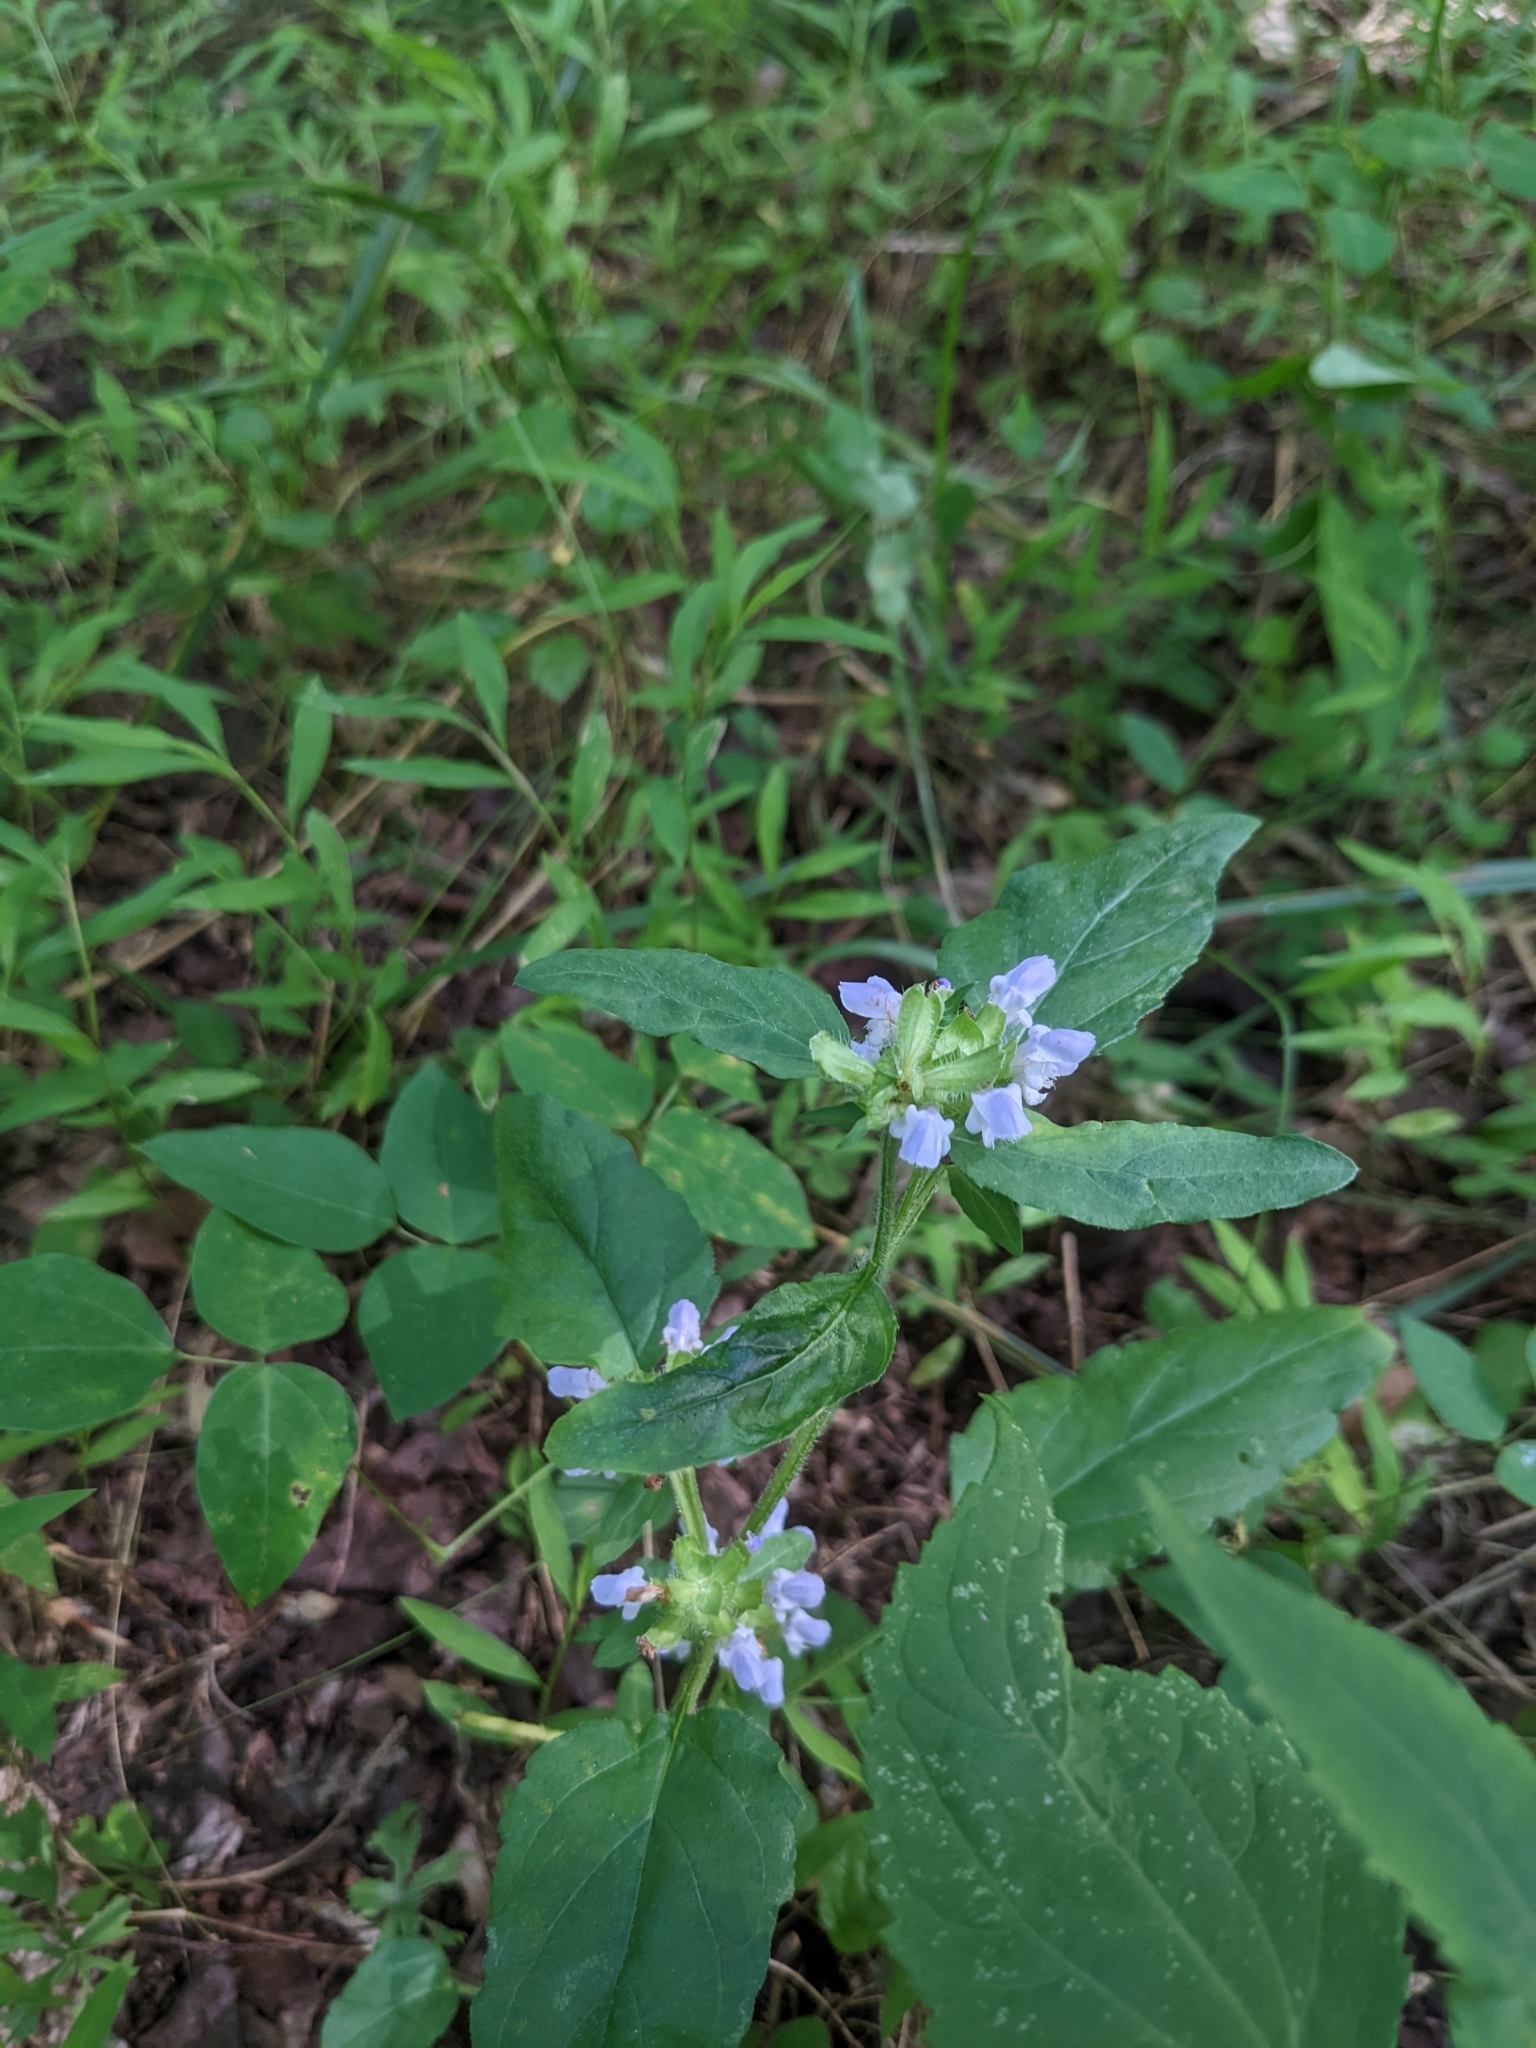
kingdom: Plantae
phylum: Tracheophyta
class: Magnoliopsida
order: Lamiales
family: Lamiaceae
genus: Prunella
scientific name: Prunella vulgaris
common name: Heal-all
